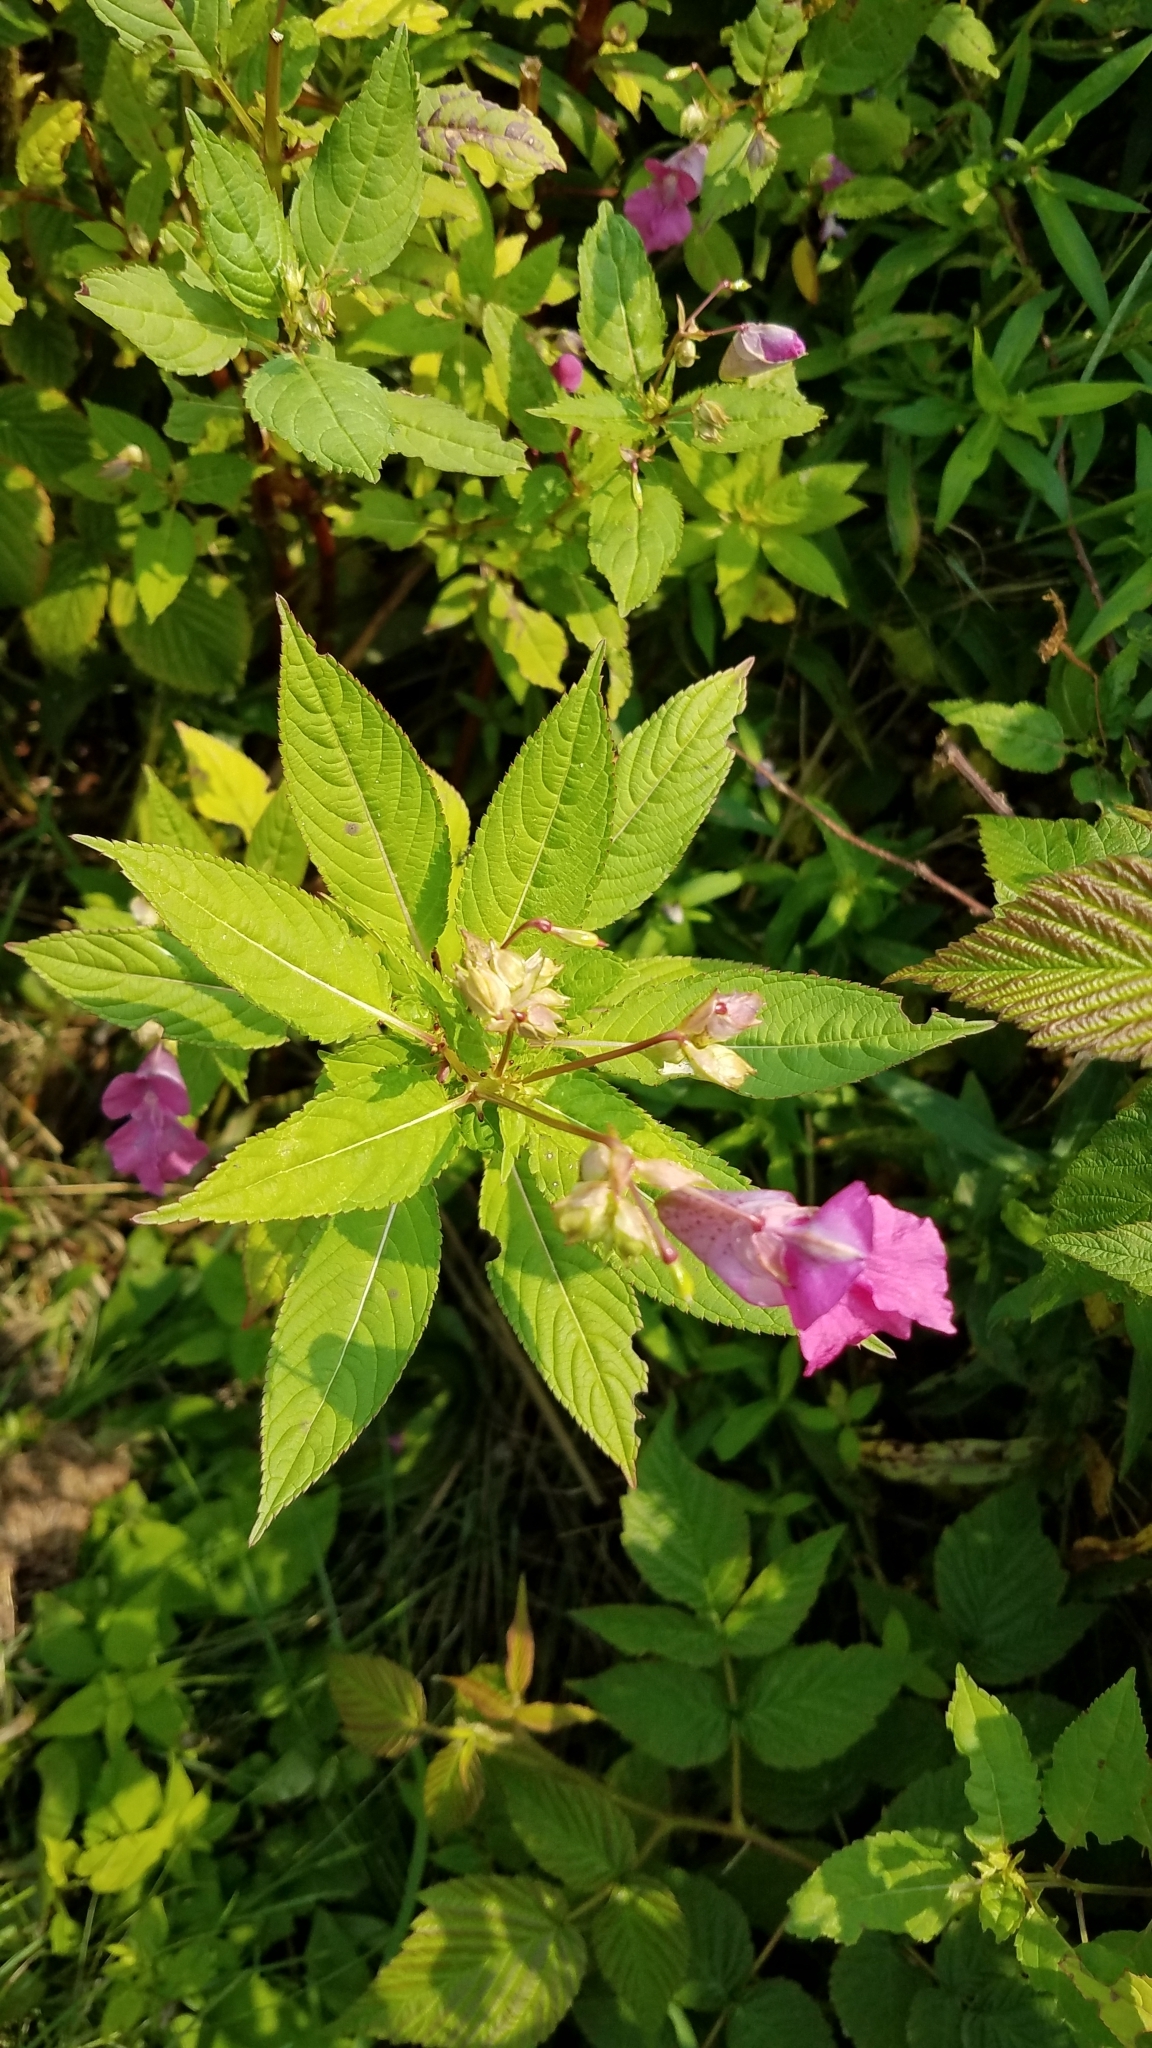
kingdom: Plantae
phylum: Tracheophyta
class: Magnoliopsida
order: Ericales
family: Balsaminaceae
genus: Impatiens
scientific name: Impatiens glandulifera
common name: Himalayan balsam
